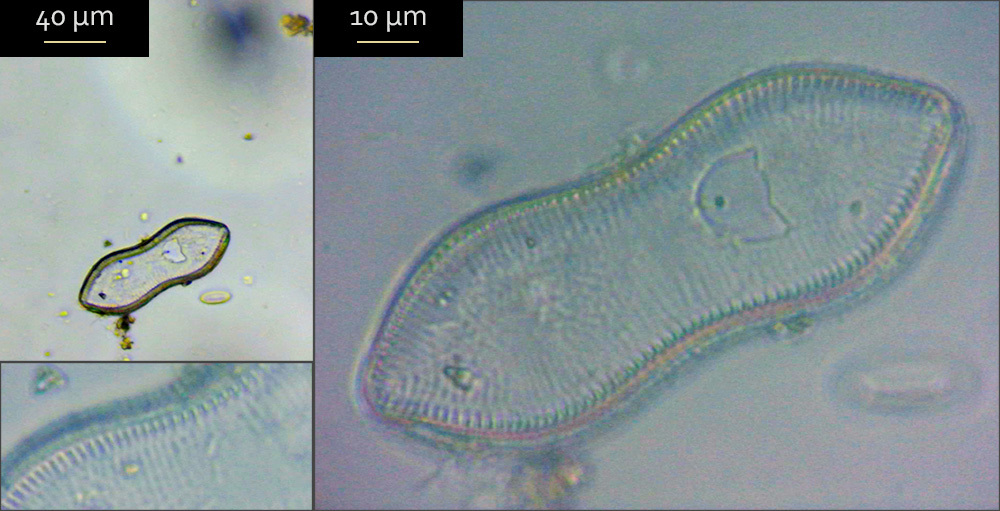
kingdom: Chromista
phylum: Ochrophyta
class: Bacillariophyceae
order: Surirellales
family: Surirellaceae
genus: Surirella
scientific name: Surirella librile
